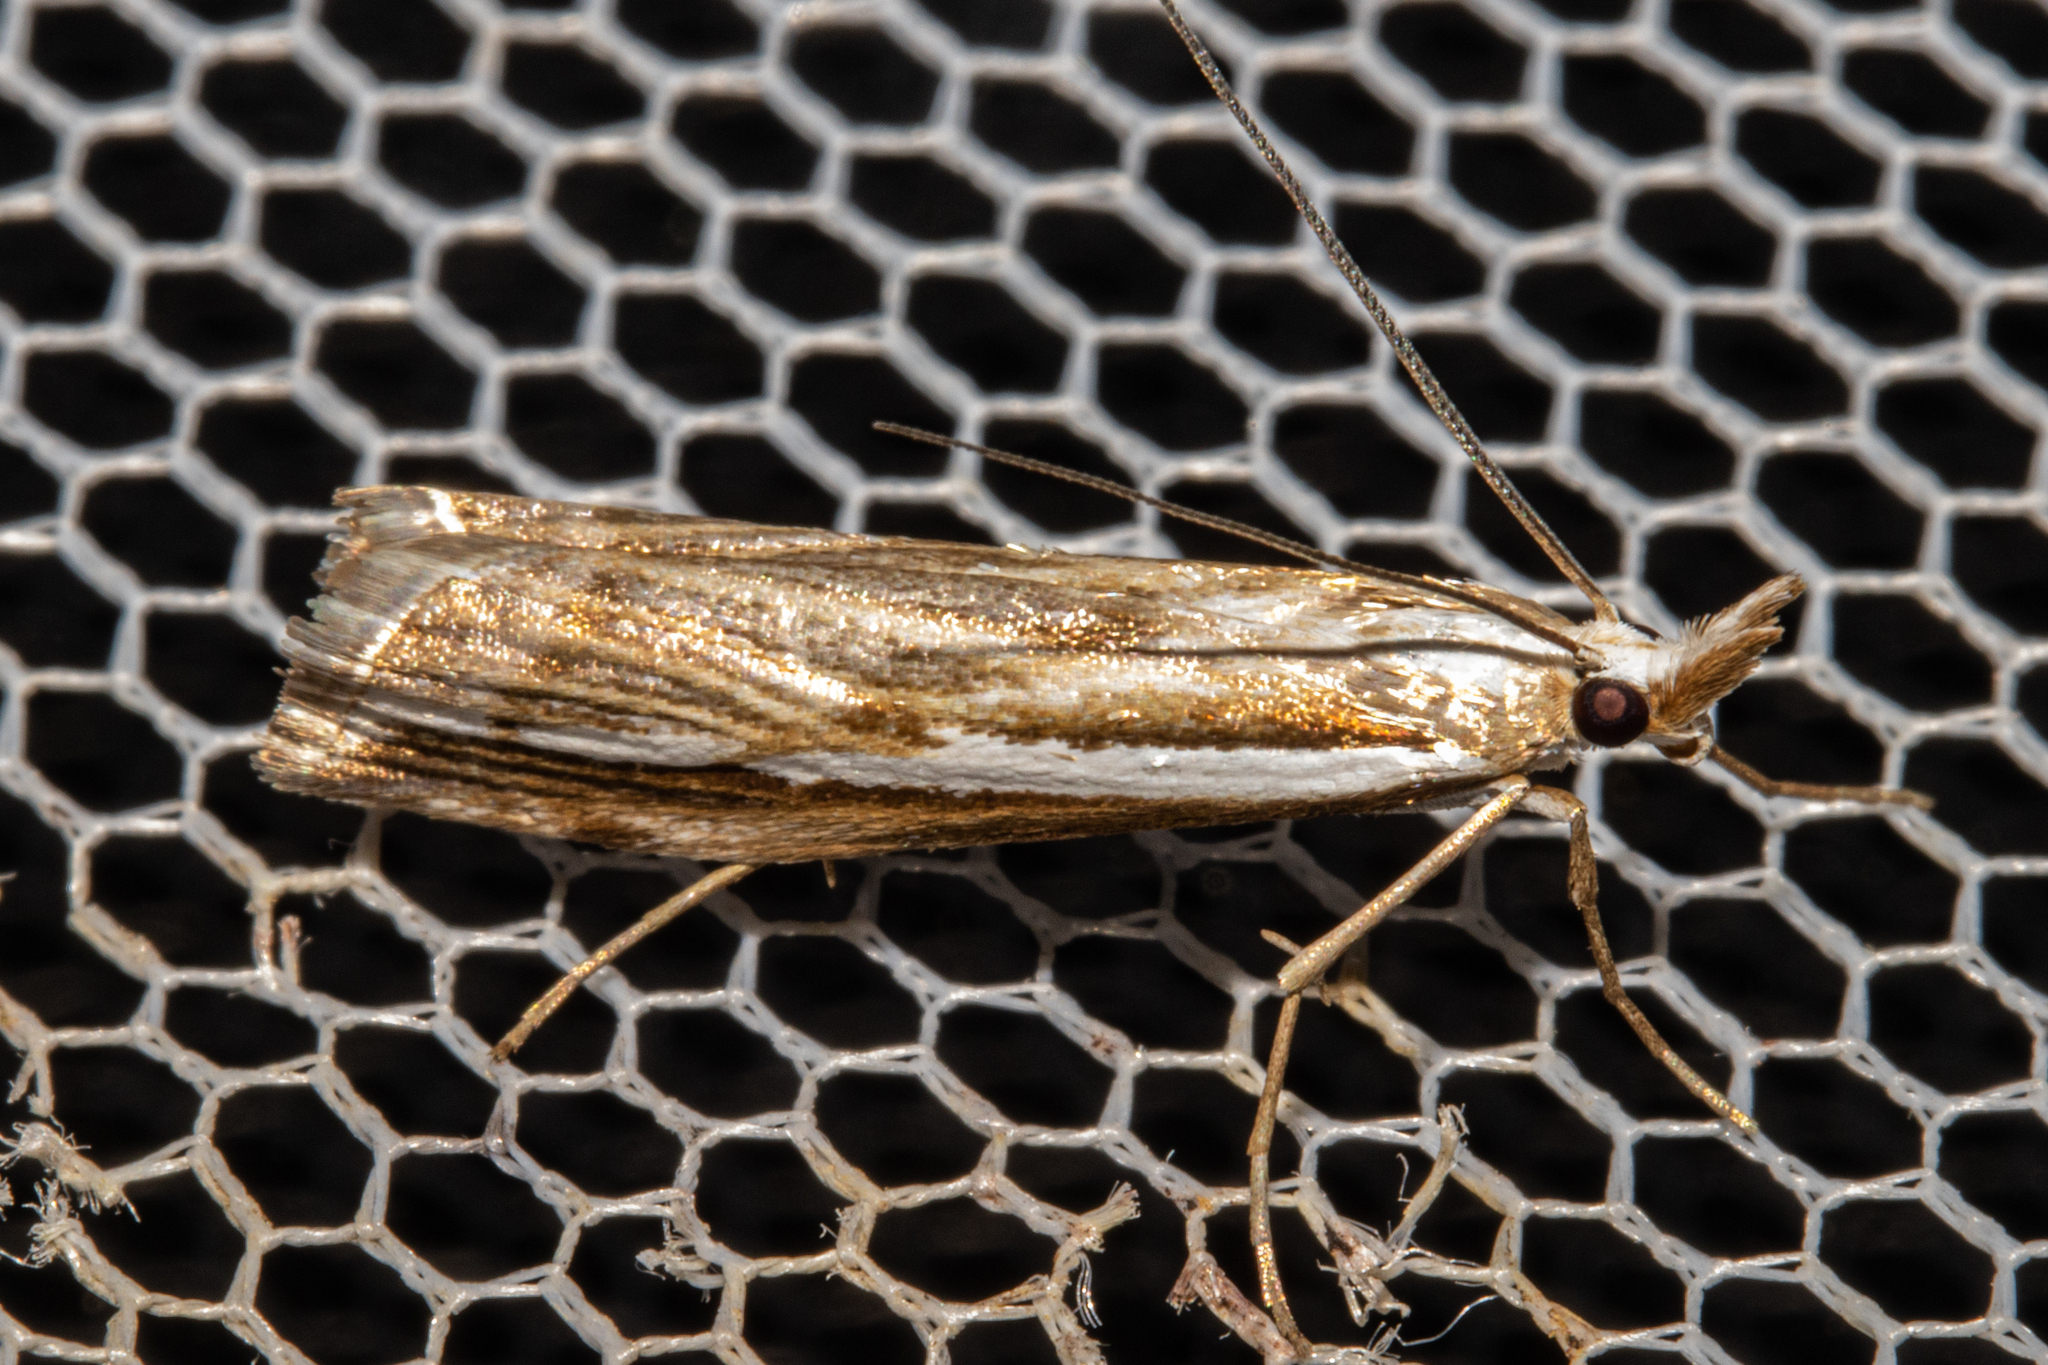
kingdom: Animalia
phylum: Arthropoda
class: Insecta
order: Lepidoptera
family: Crambidae
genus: Orocrambus
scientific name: Orocrambus vittellus
